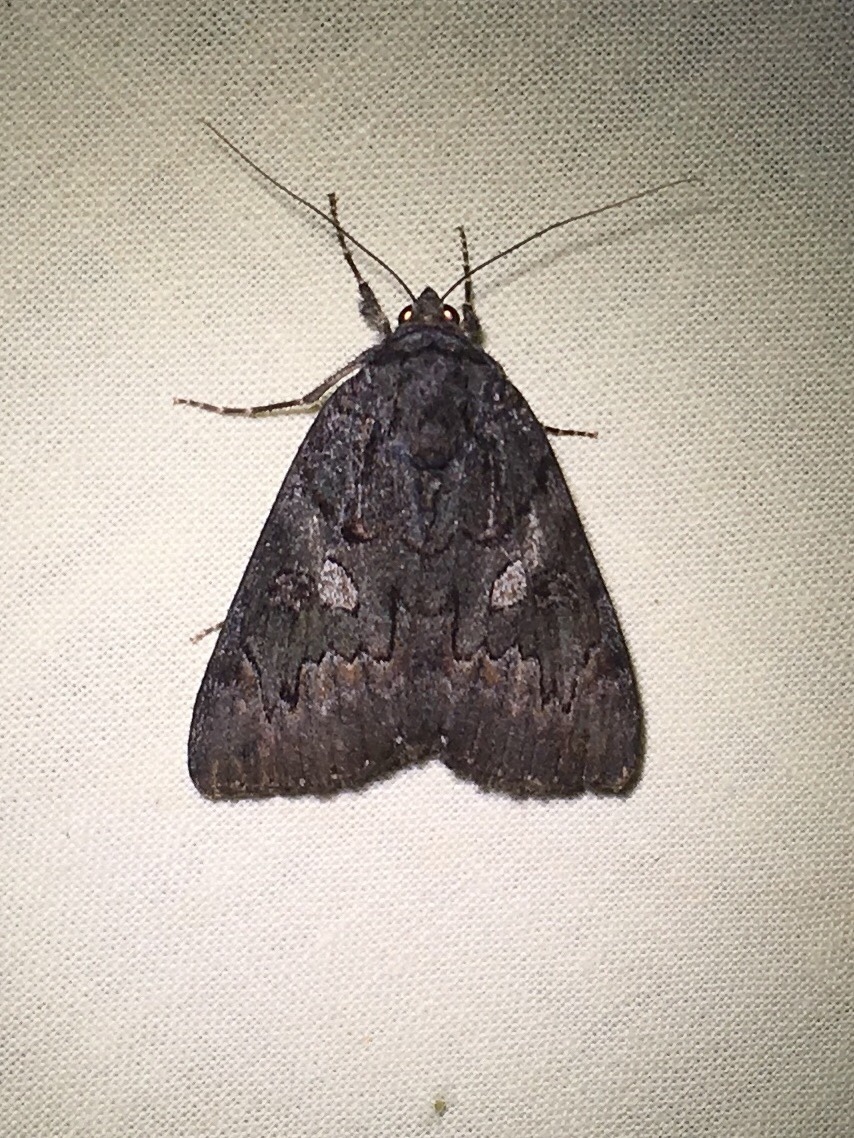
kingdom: Animalia
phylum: Arthropoda
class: Insecta
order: Lepidoptera
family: Erebidae
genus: Catocala
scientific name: Catocala antinympha
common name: Sweetfern underwing
